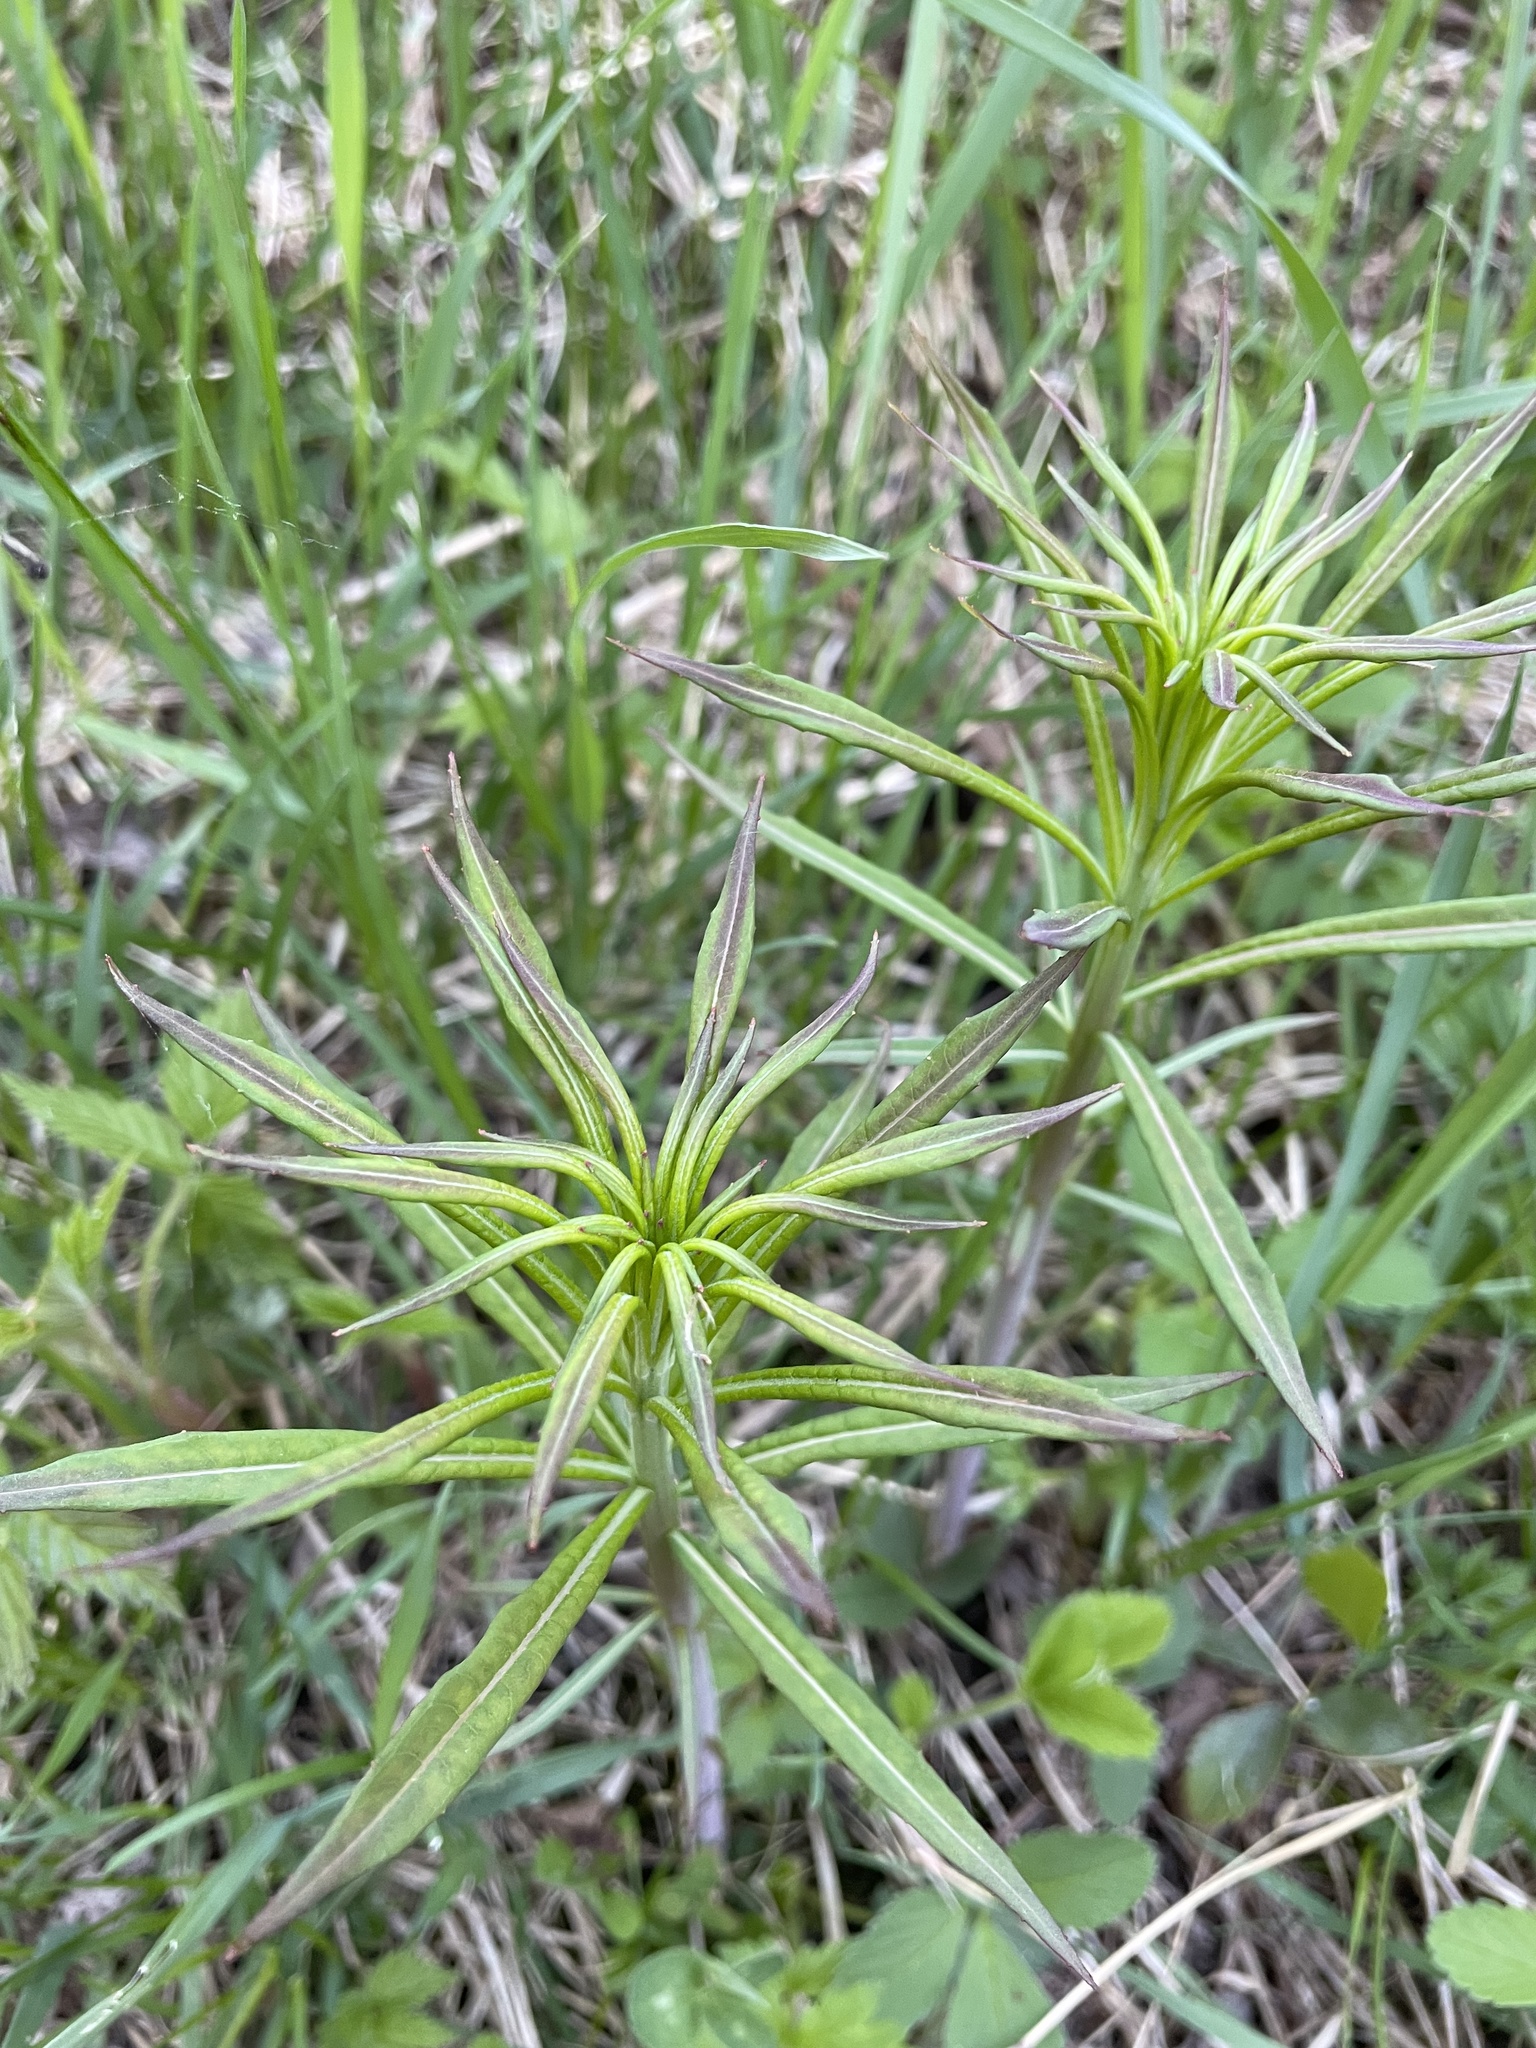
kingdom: Plantae
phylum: Tracheophyta
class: Magnoliopsida
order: Myrtales
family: Onagraceae
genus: Chamaenerion
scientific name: Chamaenerion angustifolium
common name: Fireweed
